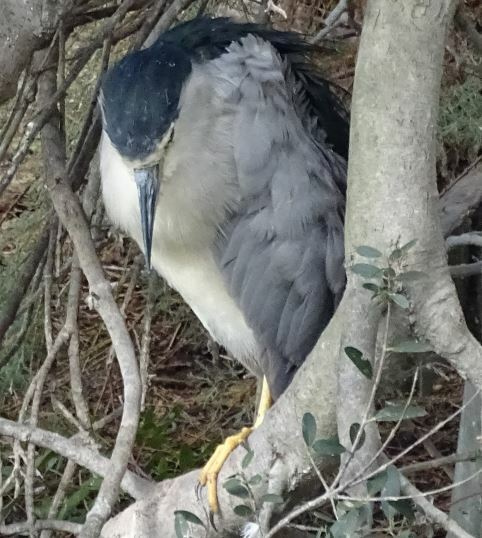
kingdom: Animalia
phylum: Chordata
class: Aves
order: Pelecaniformes
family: Ardeidae
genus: Nycticorax
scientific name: Nycticorax nycticorax
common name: Black-crowned night heron
